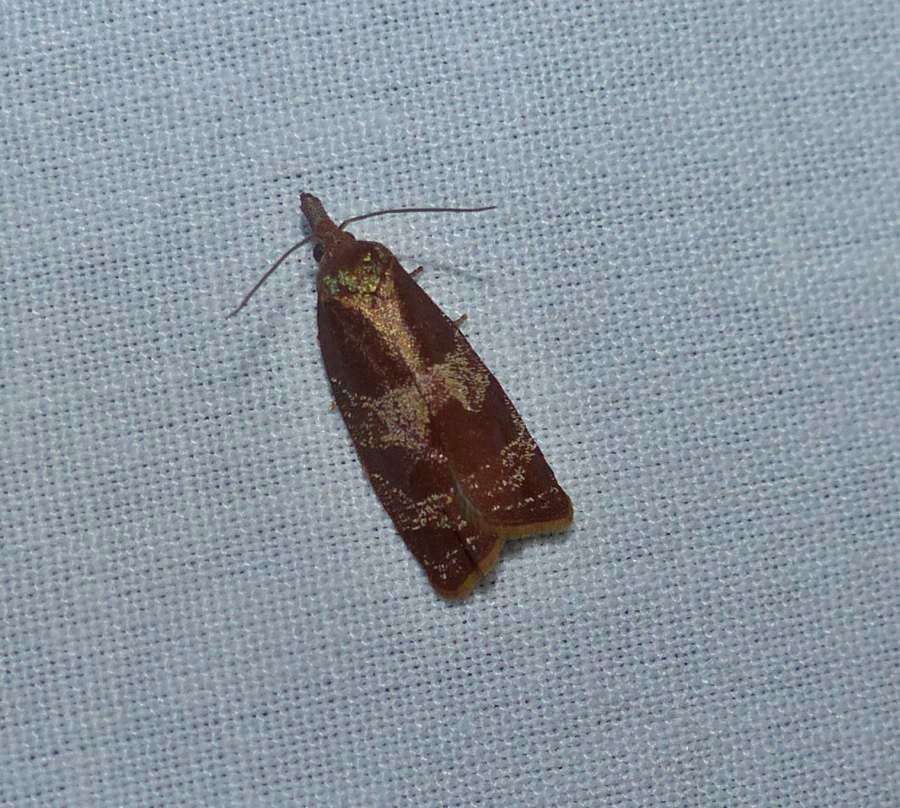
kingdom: Animalia
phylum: Arthropoda
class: Insecta
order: Lepidoptera
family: Tortricidae
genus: Cenopis
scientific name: Cenopis diluticostana
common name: Spring dead-leaf roller moth
